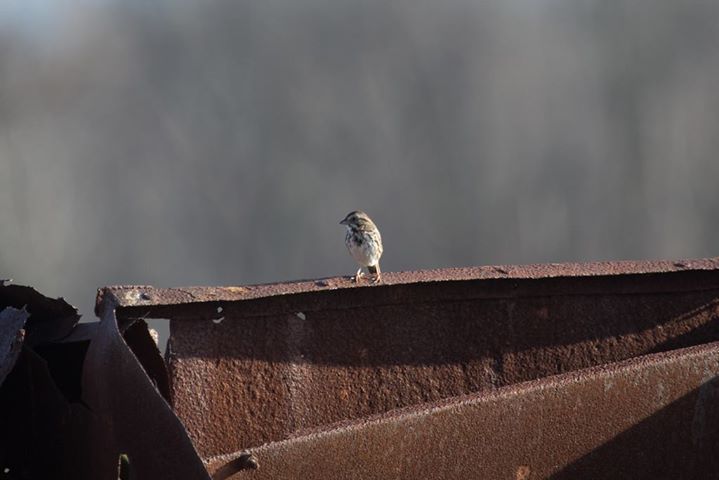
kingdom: Animalia
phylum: Chordata
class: Aves
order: Passeriformes
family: Passerellidae
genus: Melospiza
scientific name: Melospiza melodia
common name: Song sparrow
